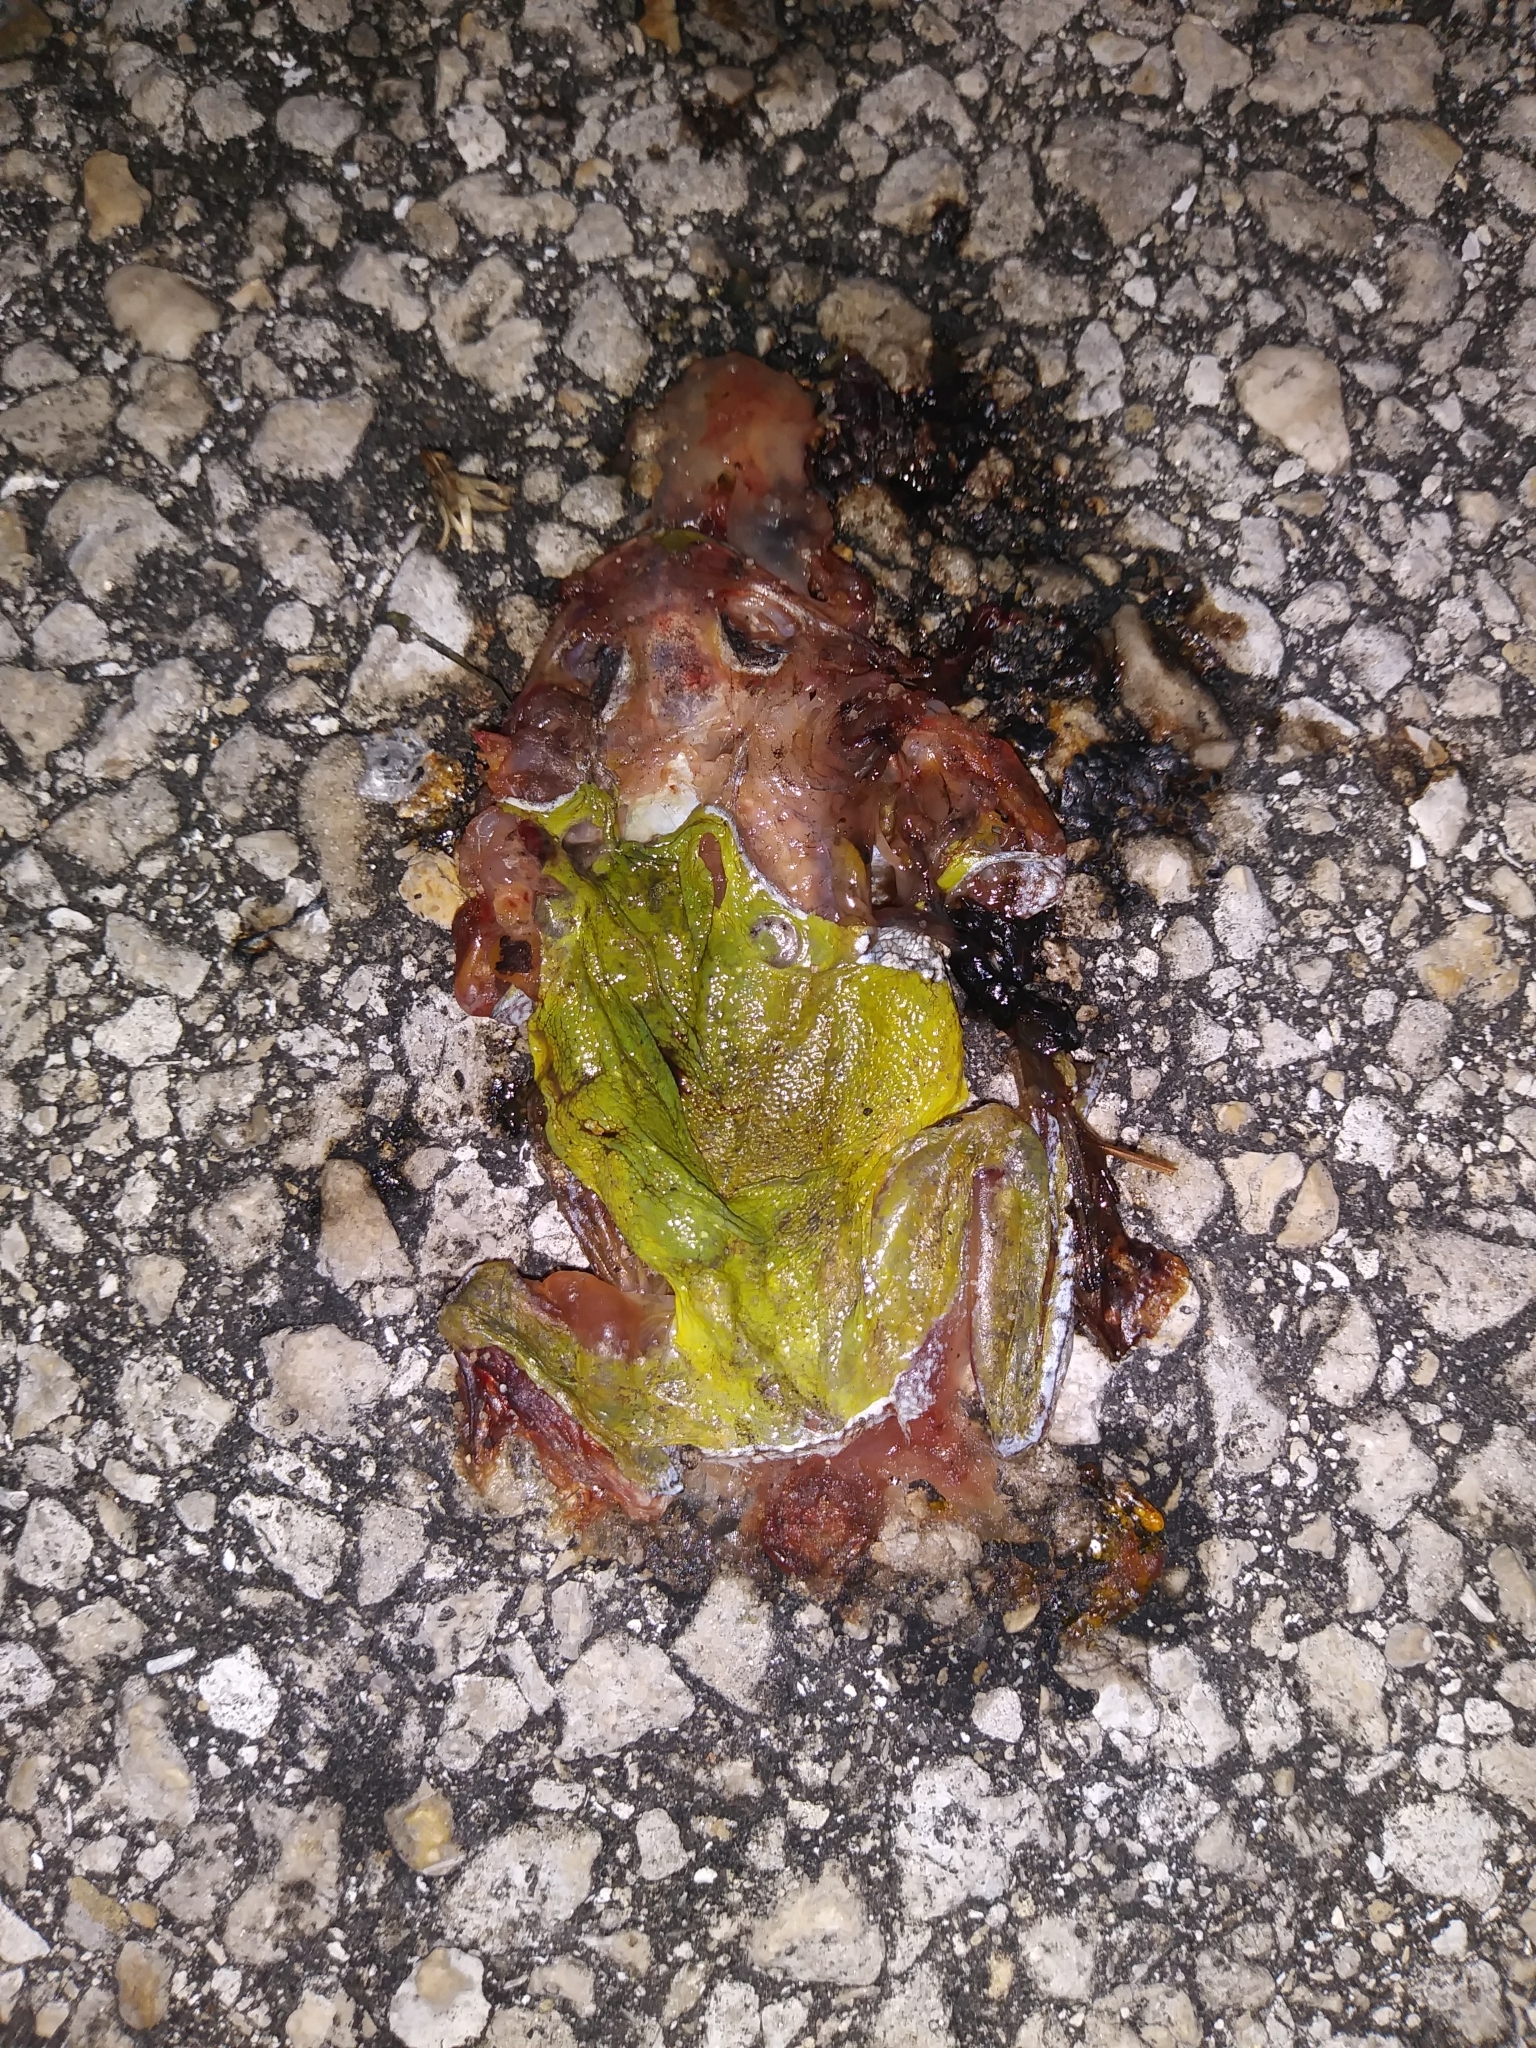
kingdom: Animalia
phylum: Chordata
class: Amphibia
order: Anura
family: Hylidae
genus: Dryophytes
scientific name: Dryophytes gratiosus
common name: Barking treefrog
